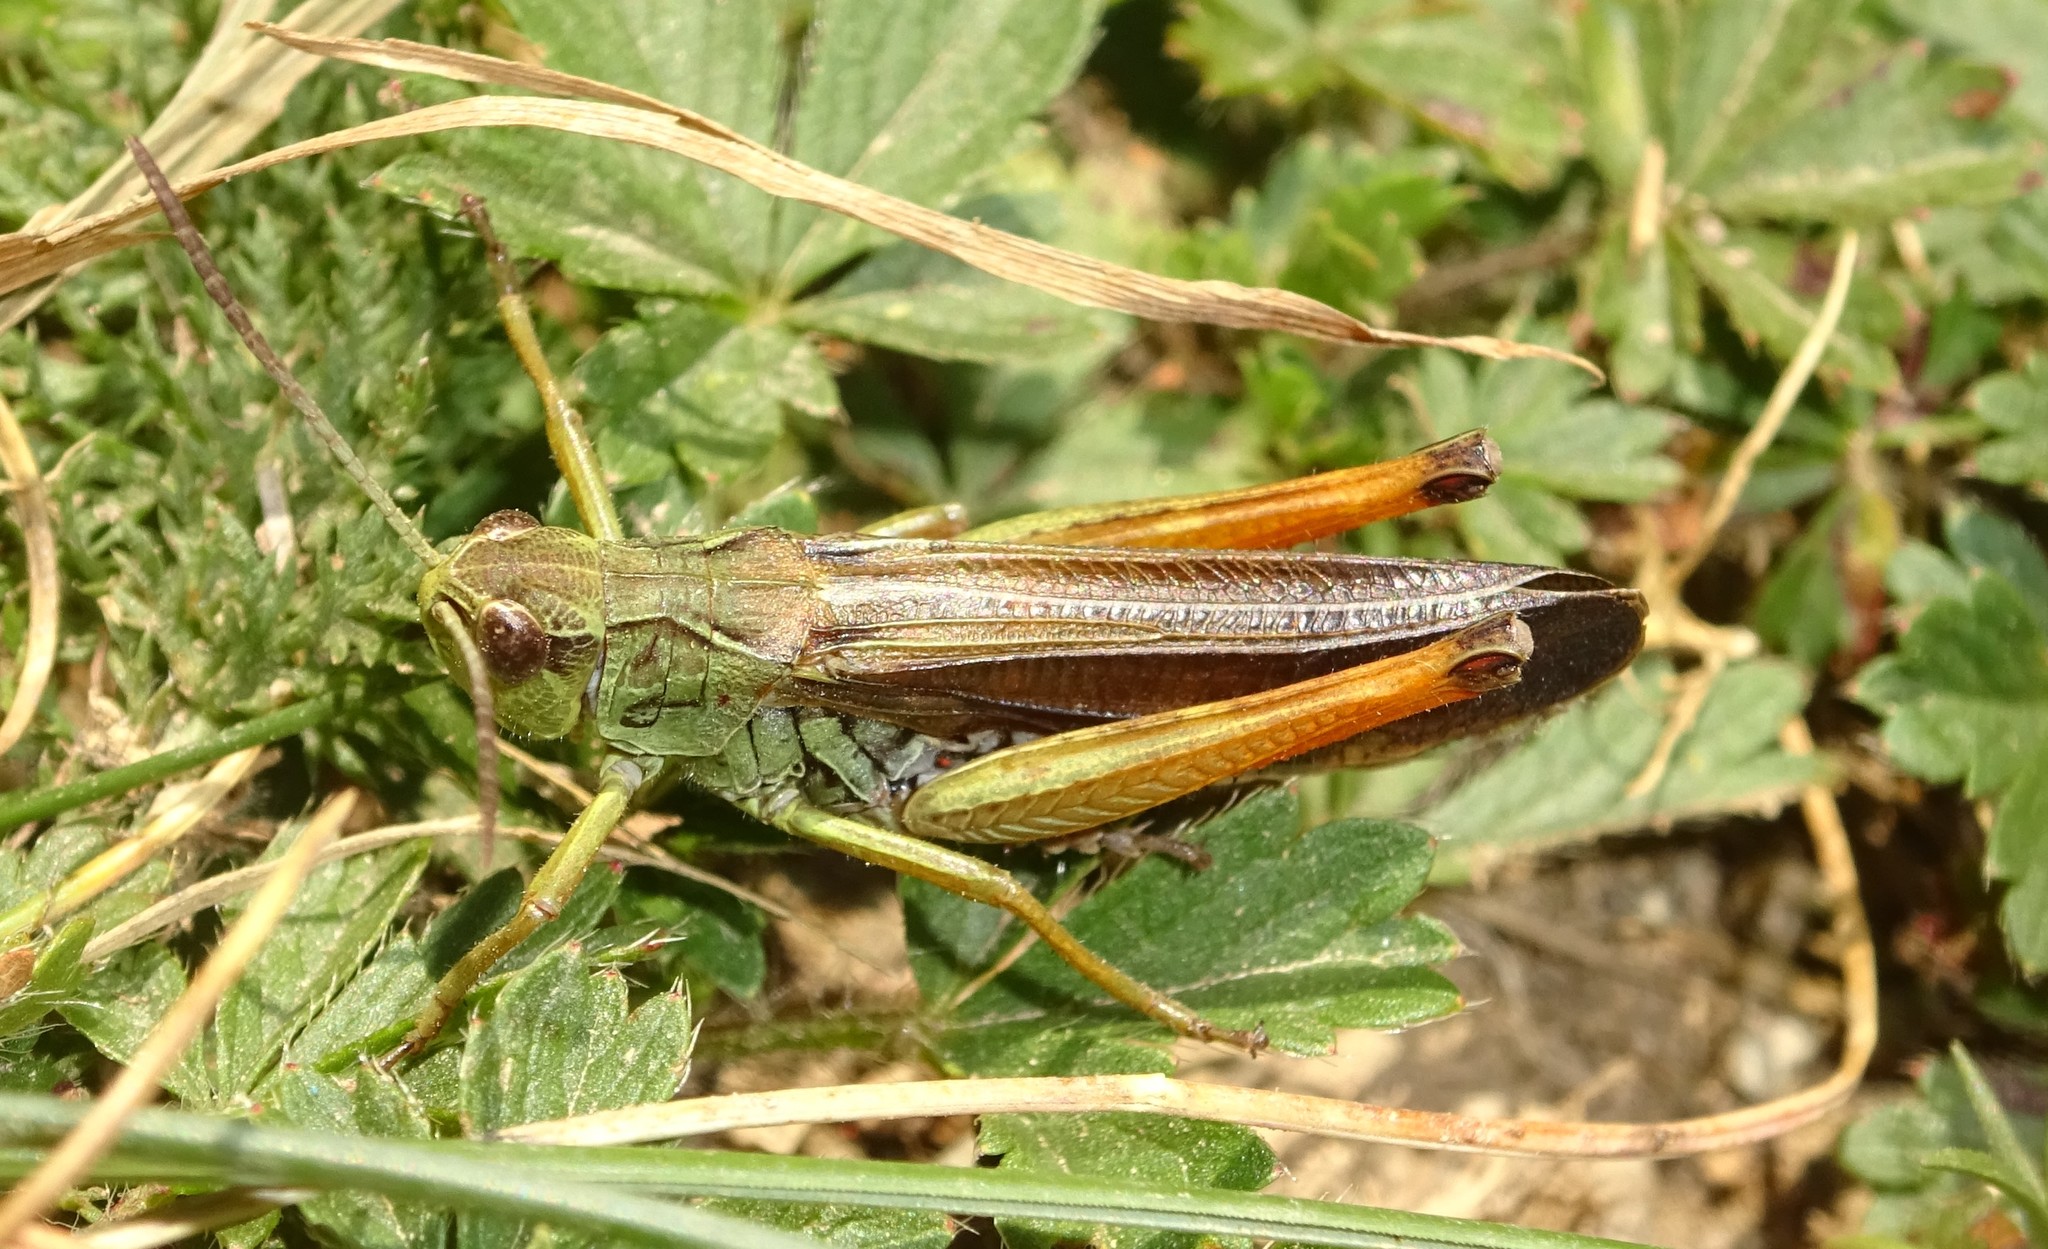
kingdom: Animalia
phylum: Arthropoda
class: Insecta
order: Orthoptera
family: Acrididae
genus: Stauroderus
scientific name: Stauroderus scalaris
